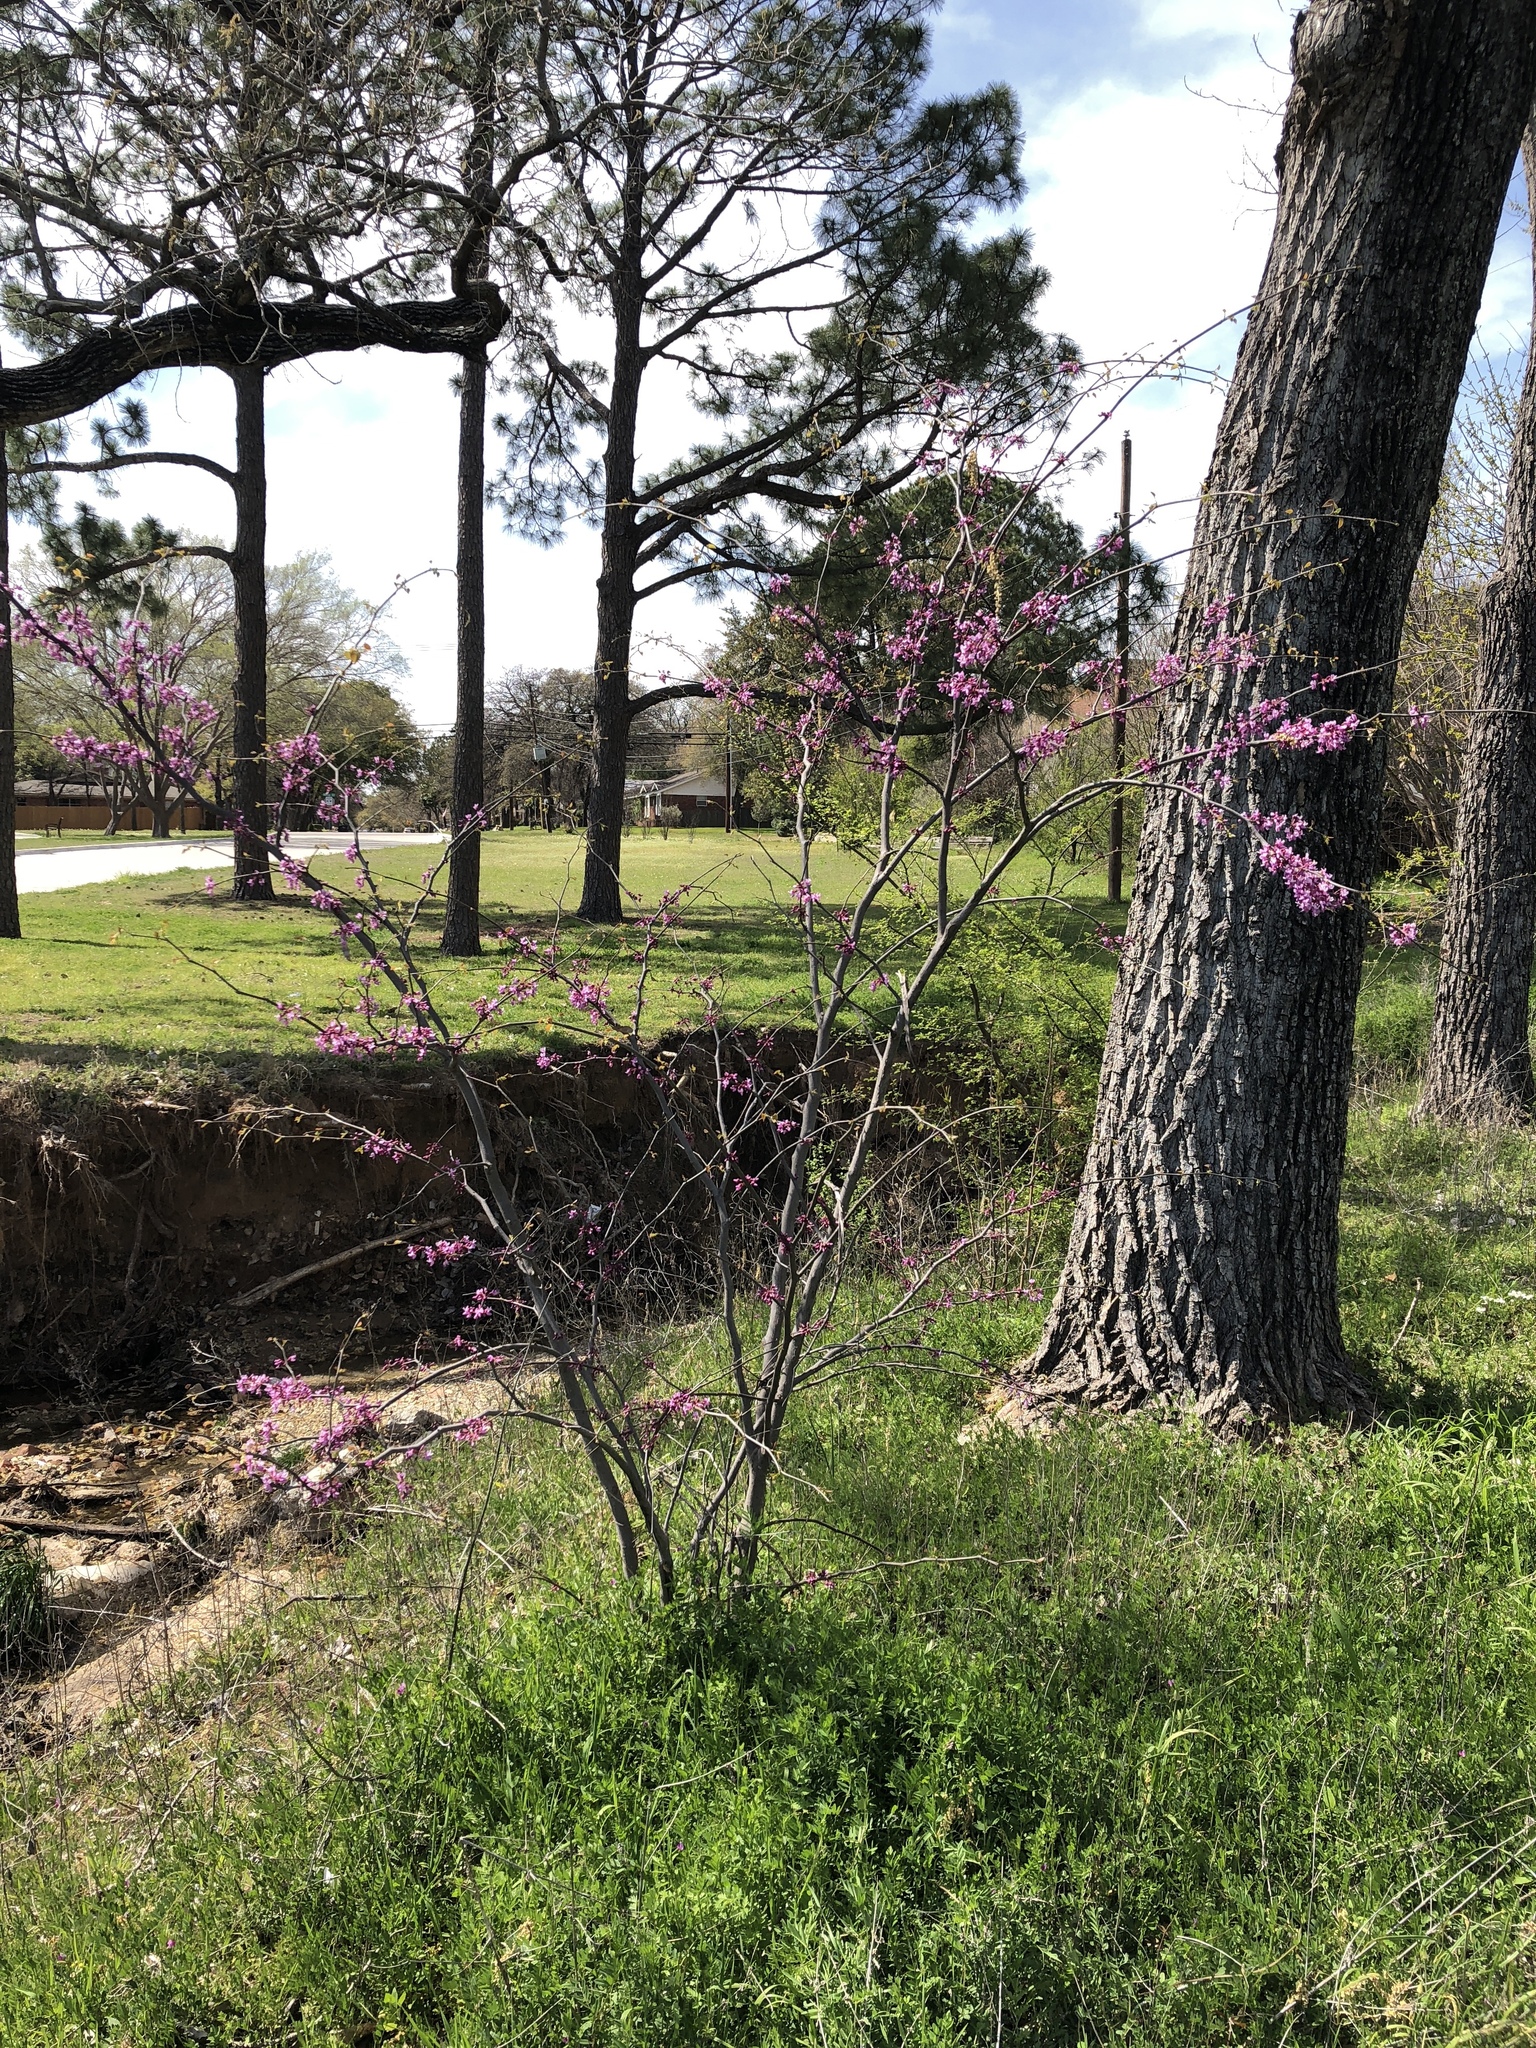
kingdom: Plantae
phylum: Tracheophyta
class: Magnoliopsida
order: Fabales
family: Fabaceae
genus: Cercis
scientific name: Cercis canadensis
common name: Eastern redbud
